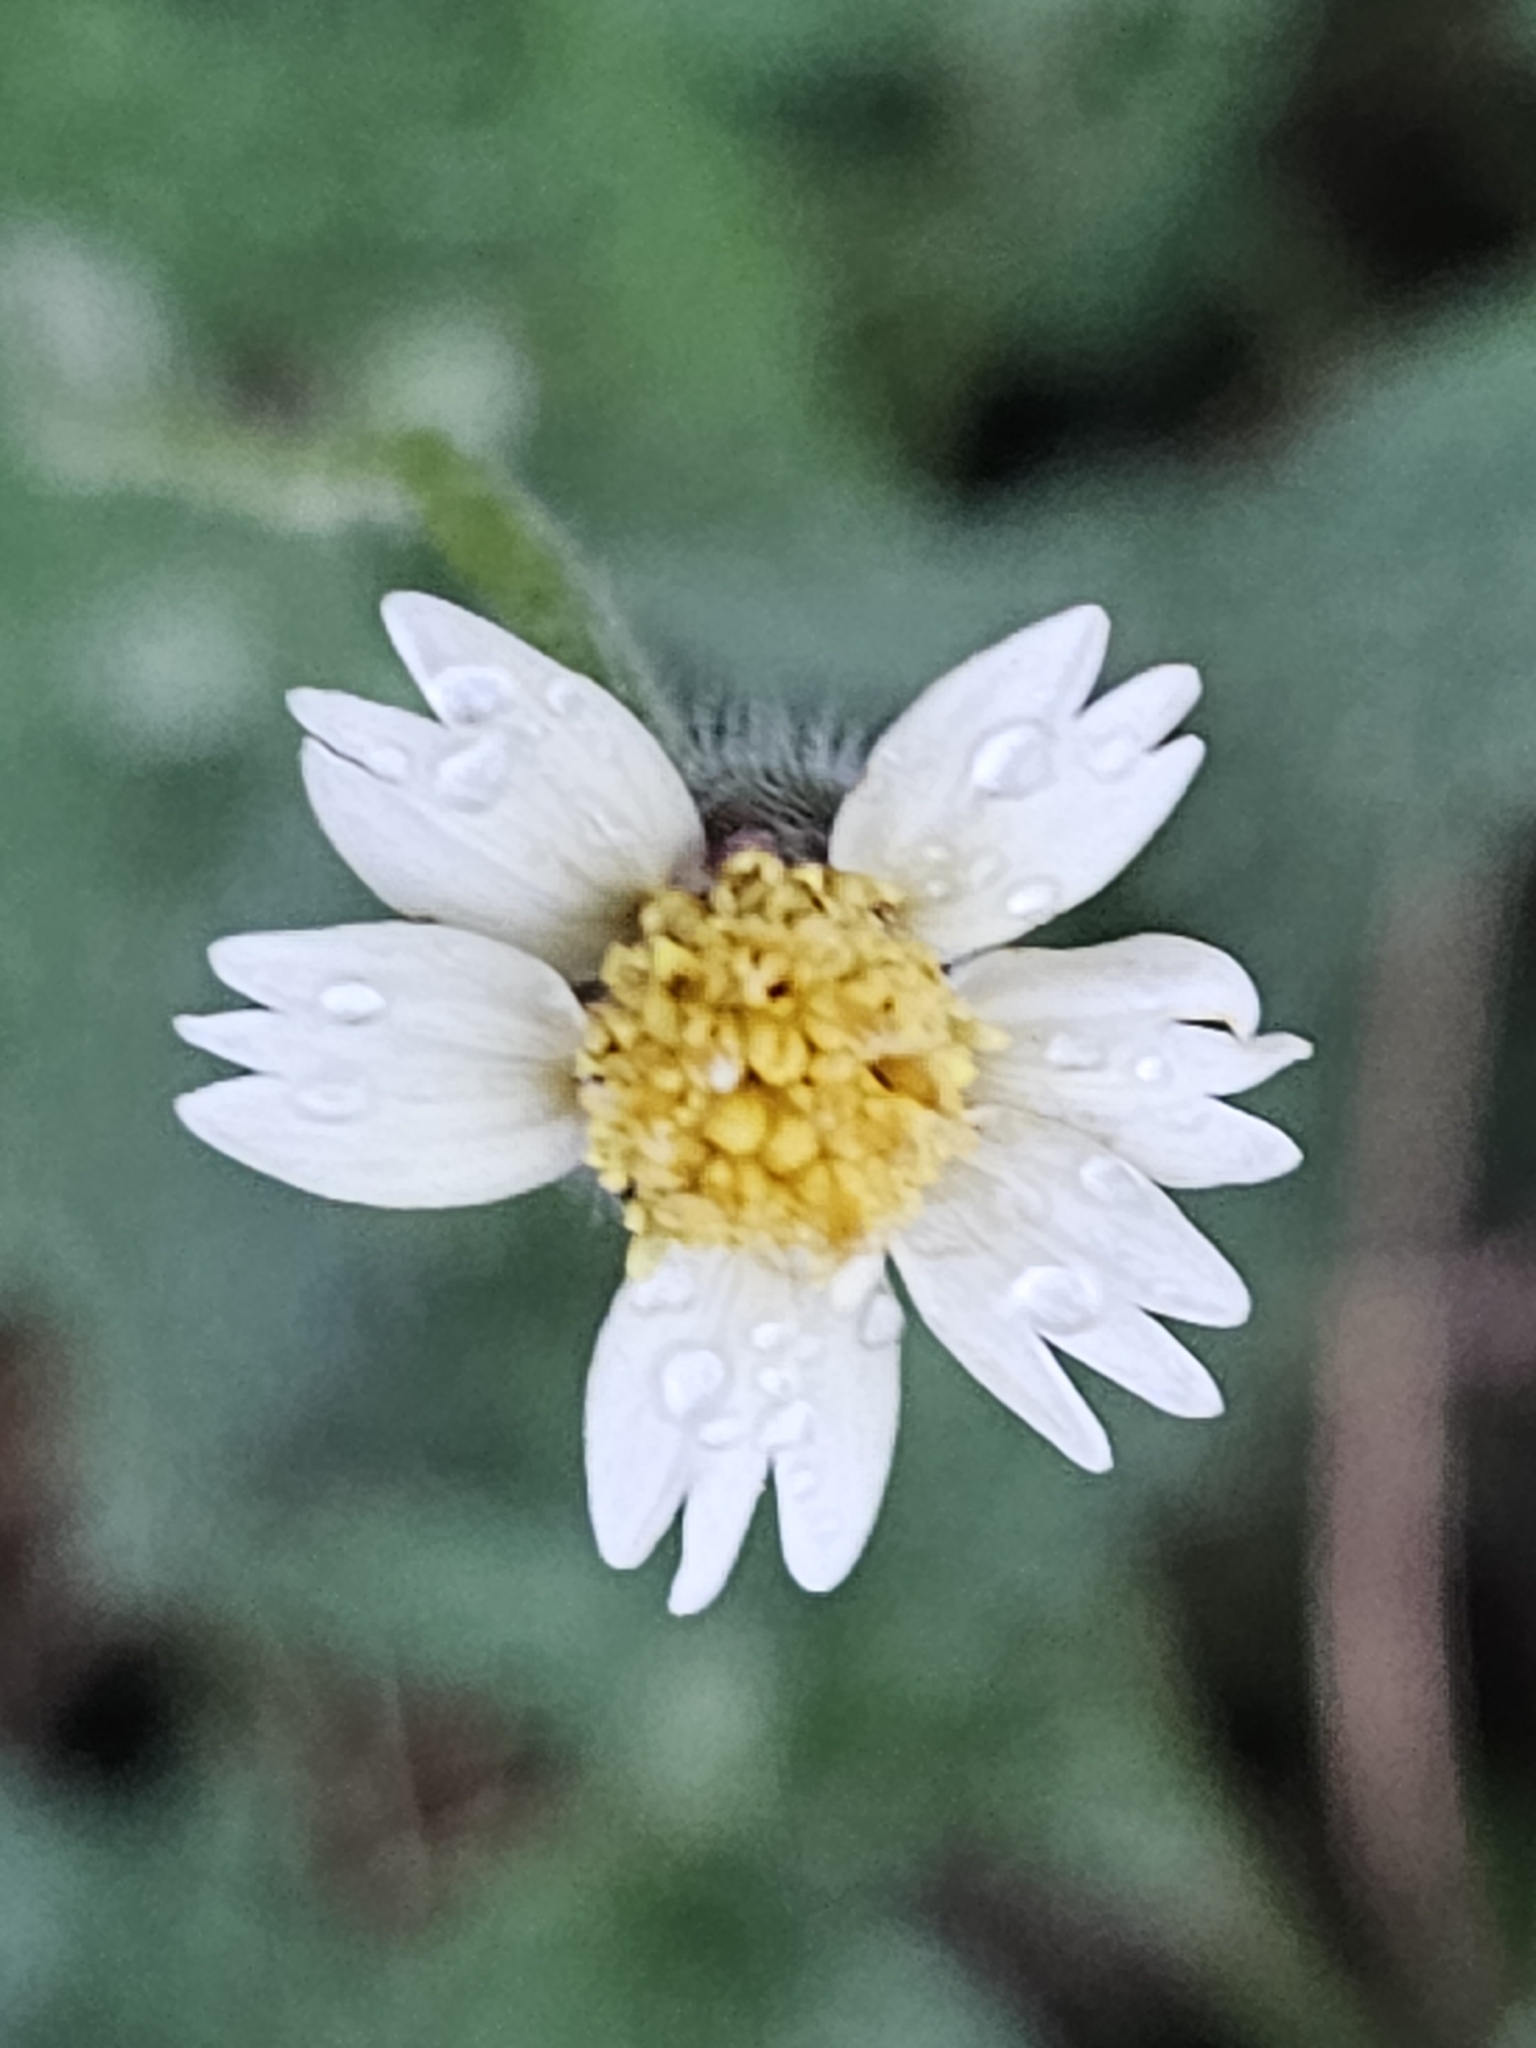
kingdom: Plantae
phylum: Tracheophyta
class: Magnoliopsida
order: Asterales
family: Asteraceae
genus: Tridax
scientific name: Tridax procumbens
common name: Coatbuttons
